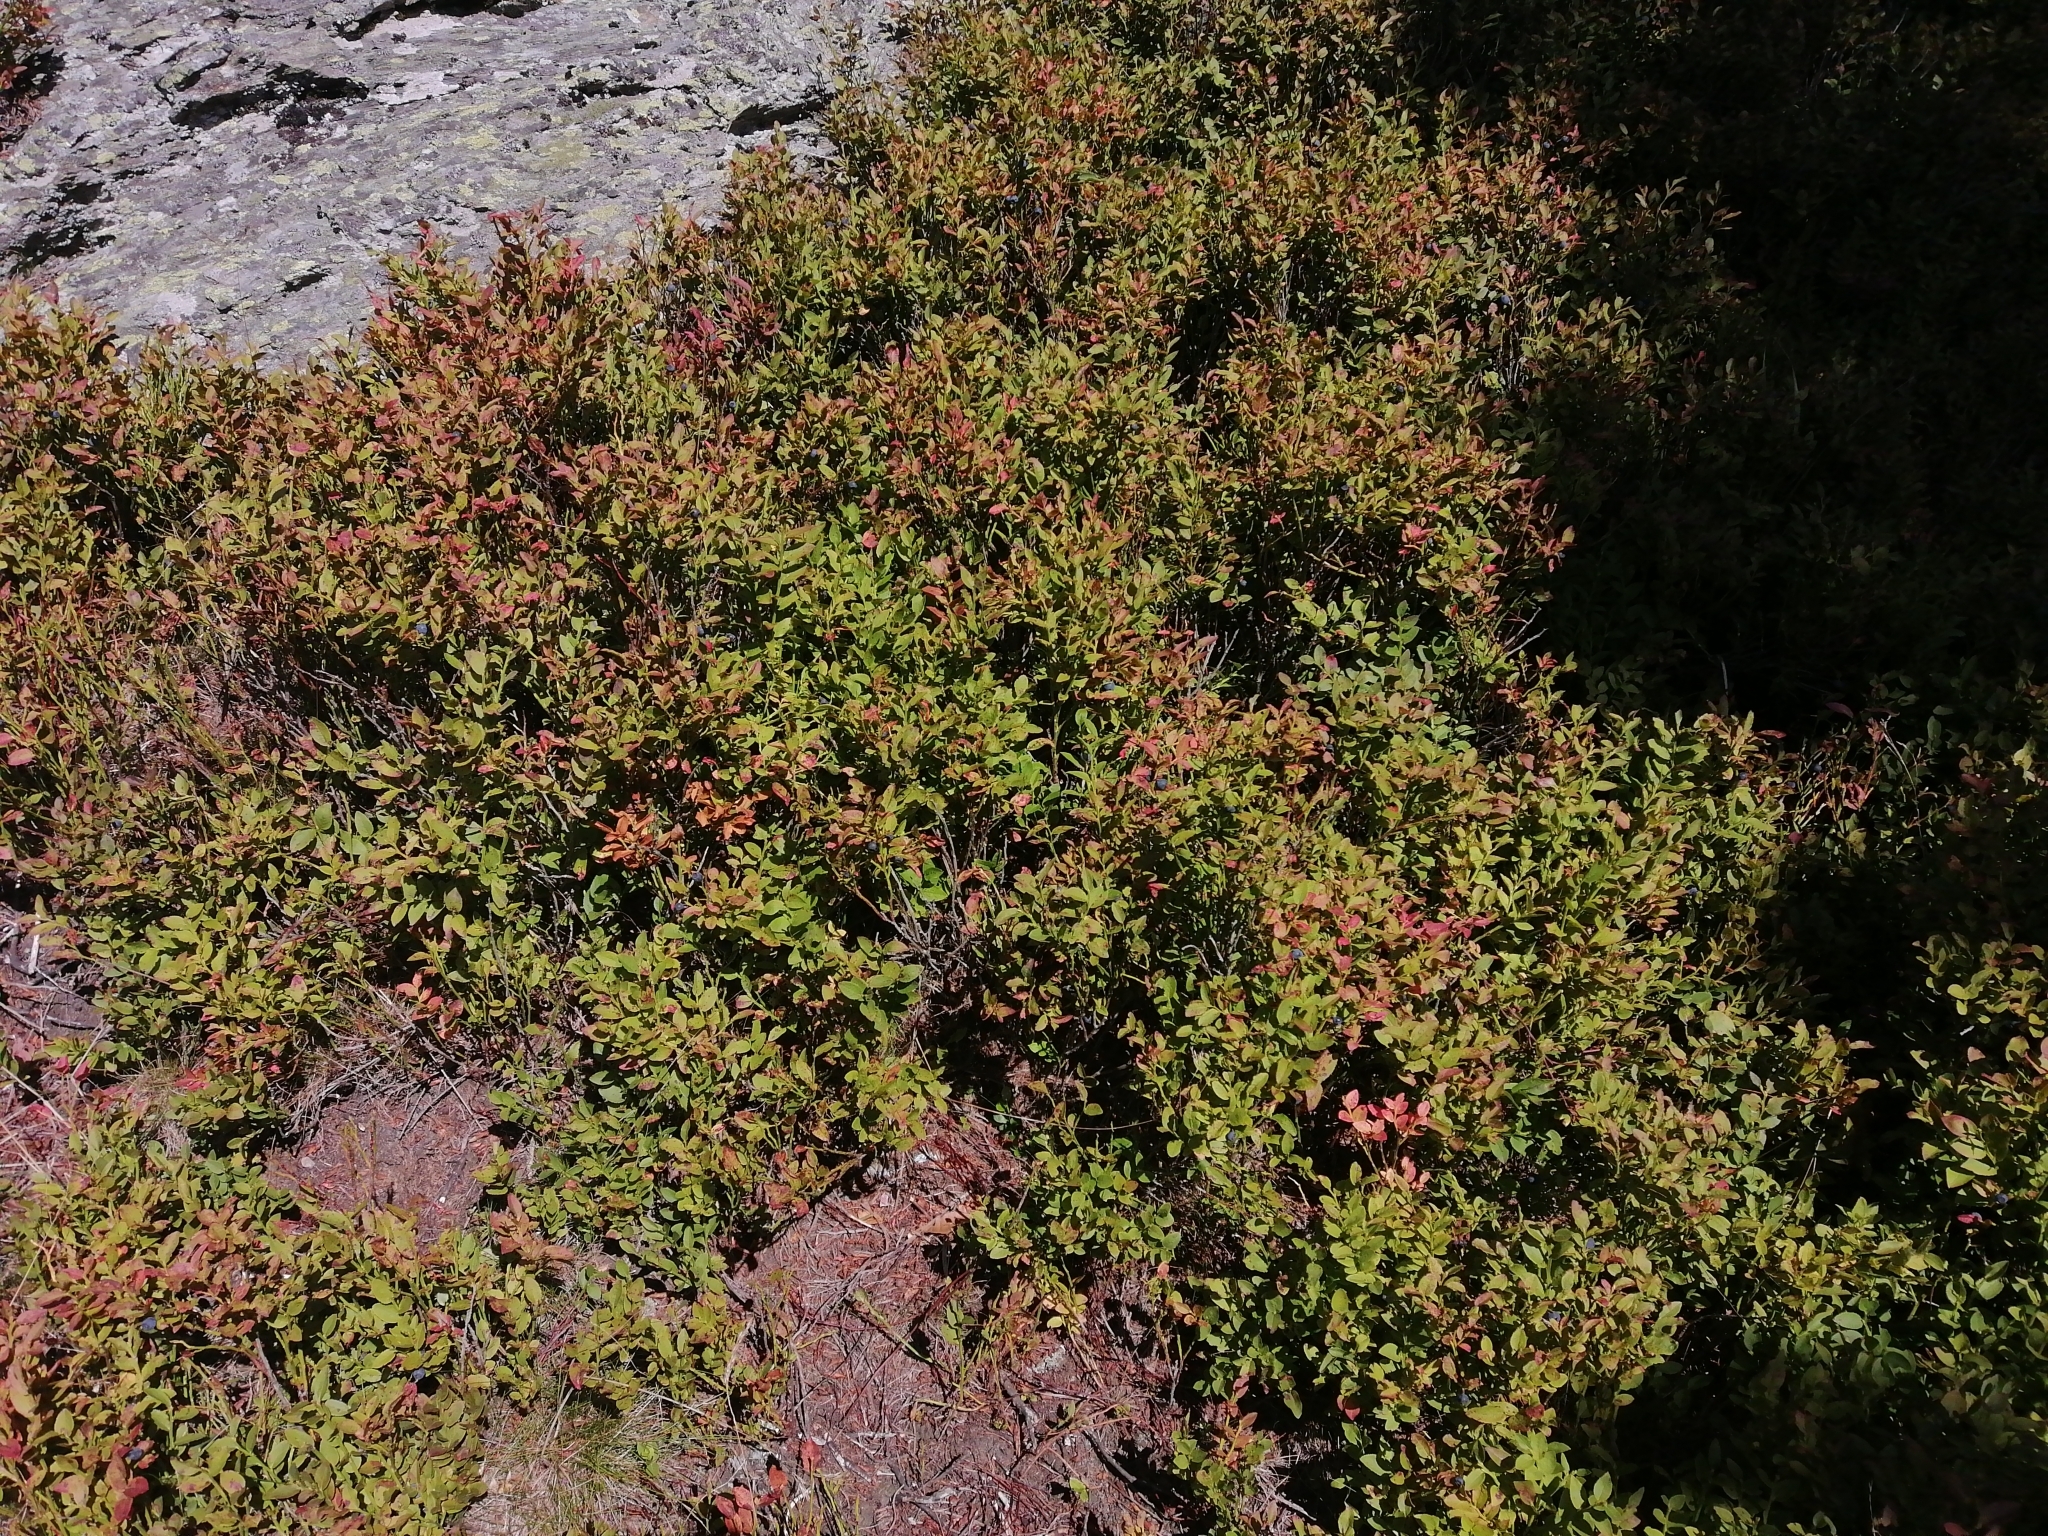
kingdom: Plantae
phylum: Tracheophyta
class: Magnoliopsida
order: Ericales
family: Ericaceae
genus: Vaccinium
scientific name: Vaccinium myrtillus
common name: Bilberry
